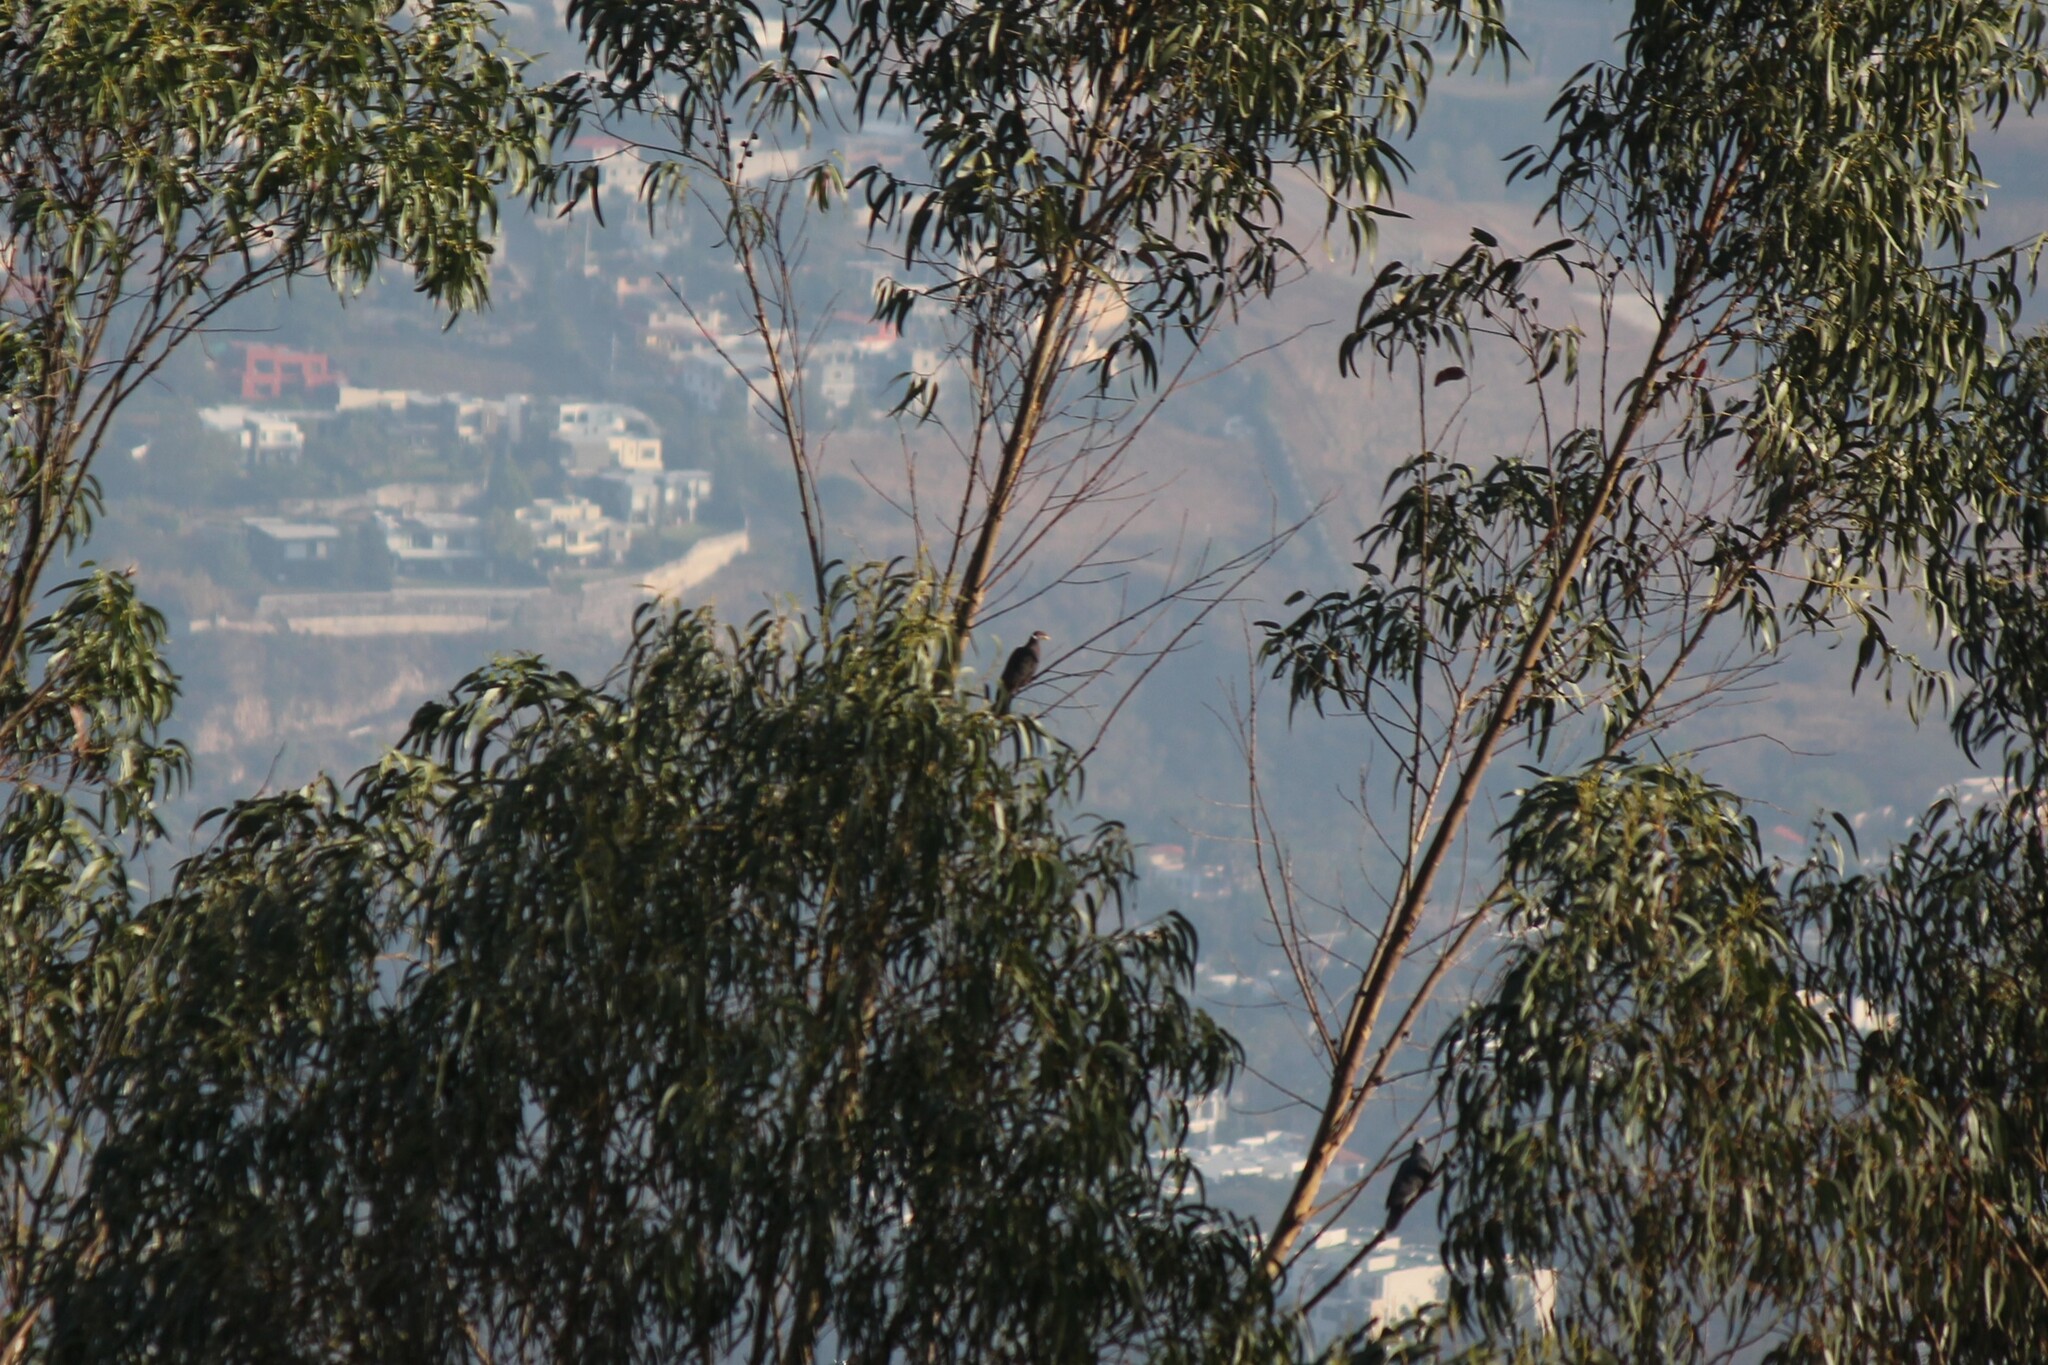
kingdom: Animalia
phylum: Chordata
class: Aves
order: Columbiformes
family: Columbidae
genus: Patagioenas
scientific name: Patagioenas fasciata
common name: Band-tailed pigeon
